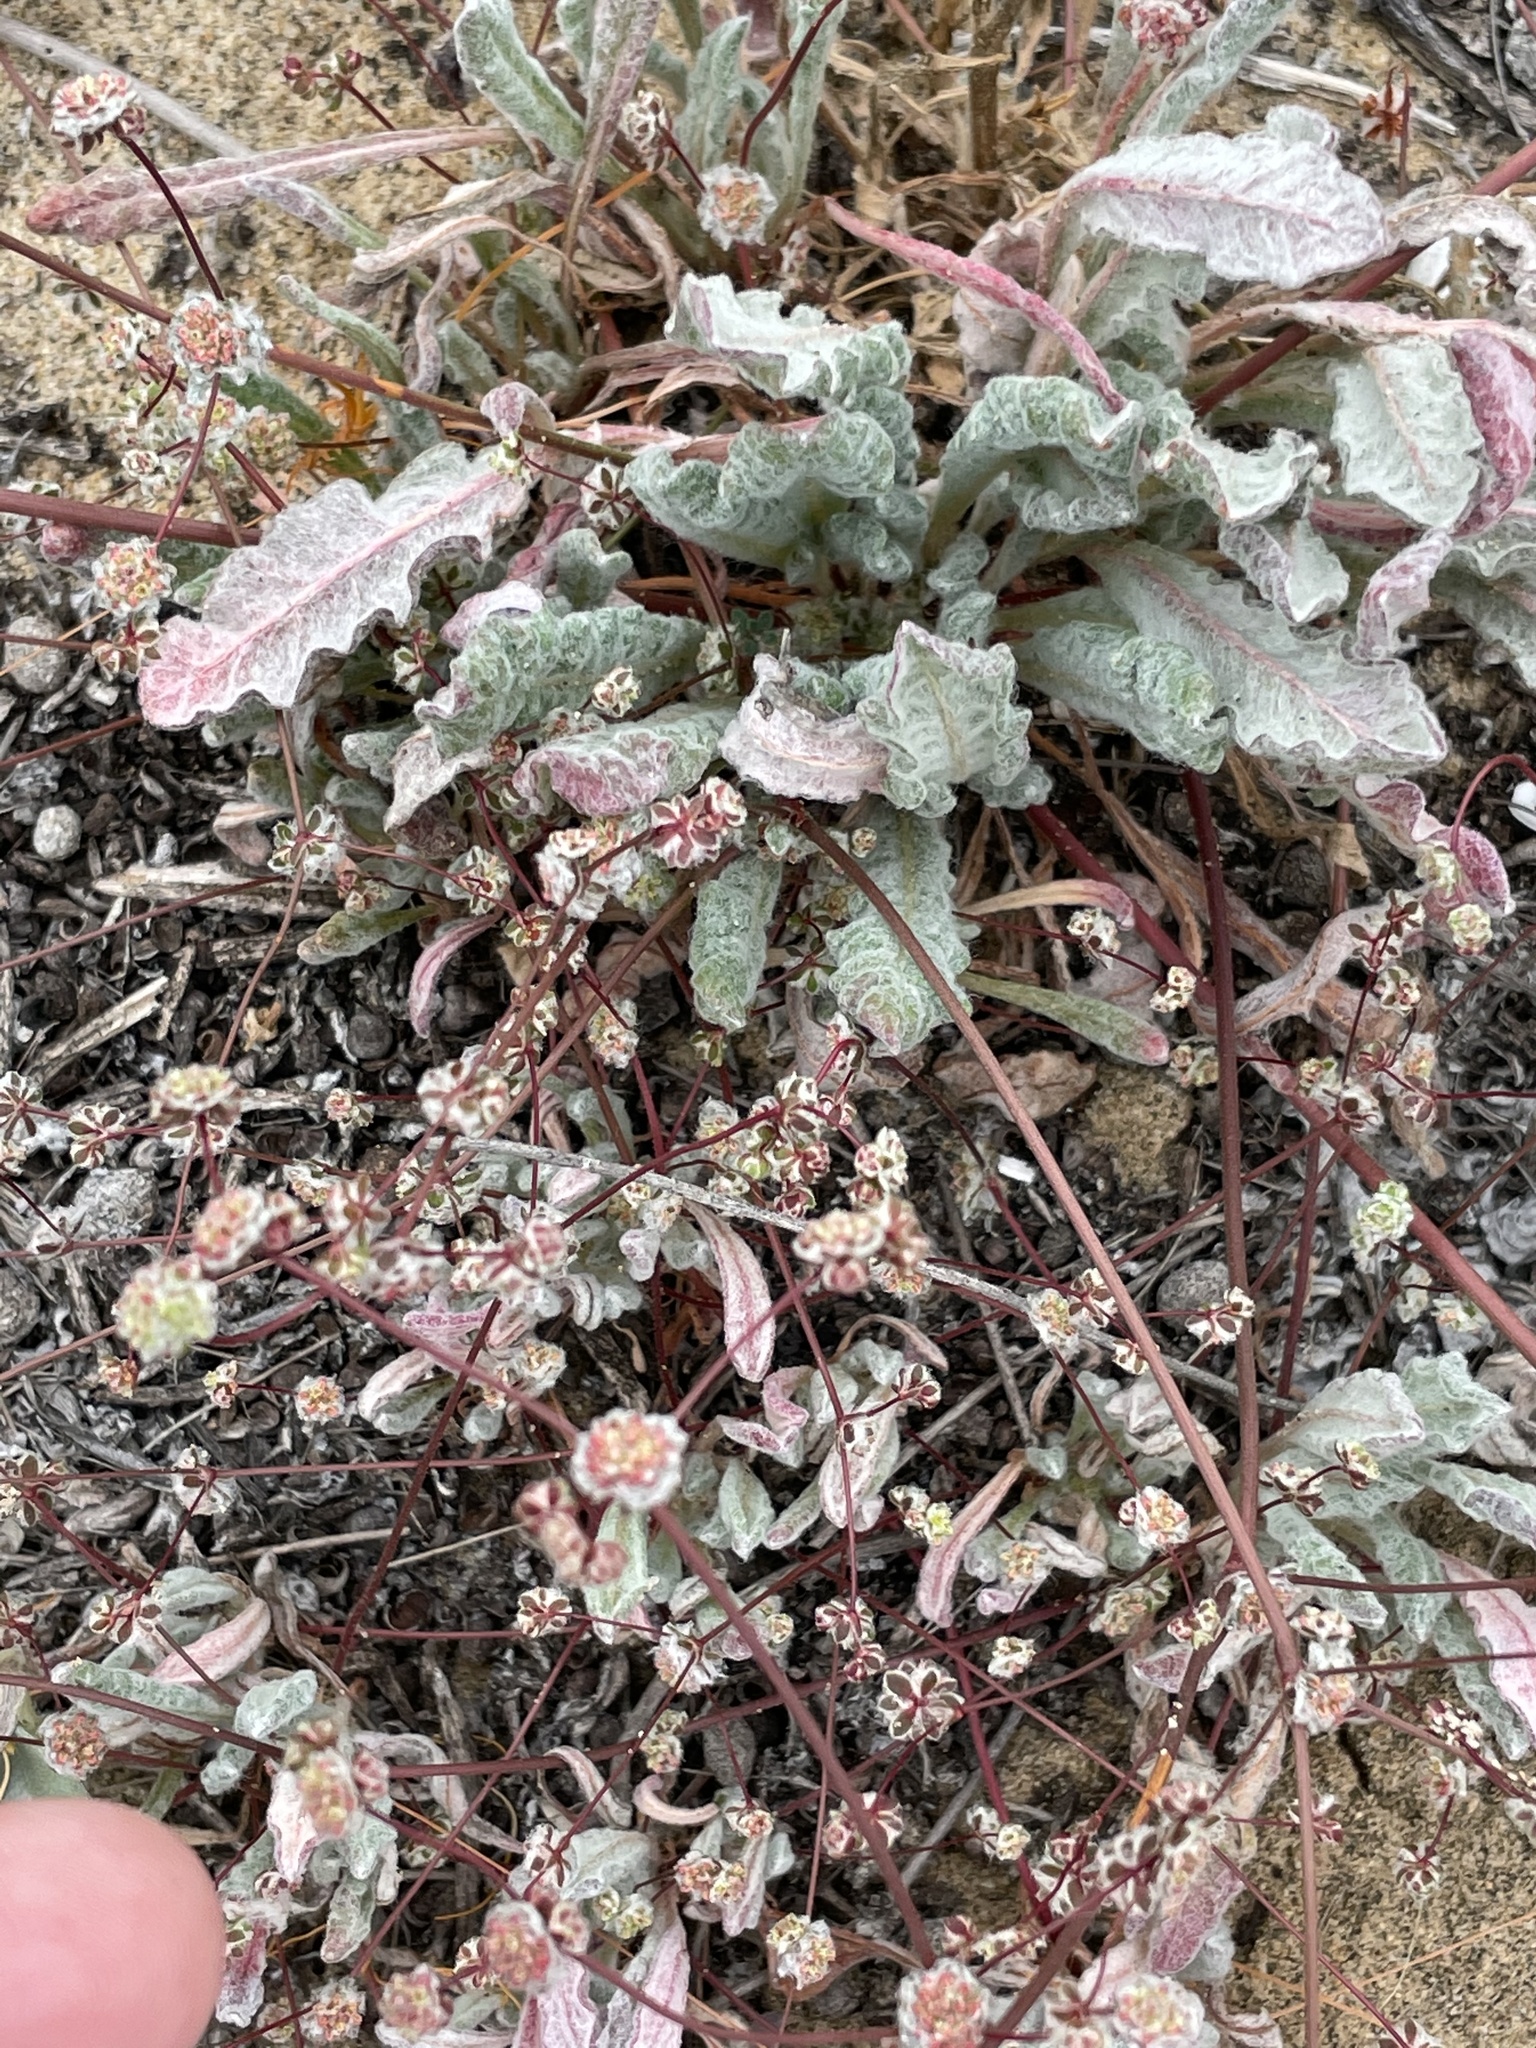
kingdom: Plantae
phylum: Tracheophyta
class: Magnoliopsida
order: Caryophyllales
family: Polygonaceae
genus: Nemacaulis
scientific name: Nemacaulis denudata
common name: Woolly-heads
